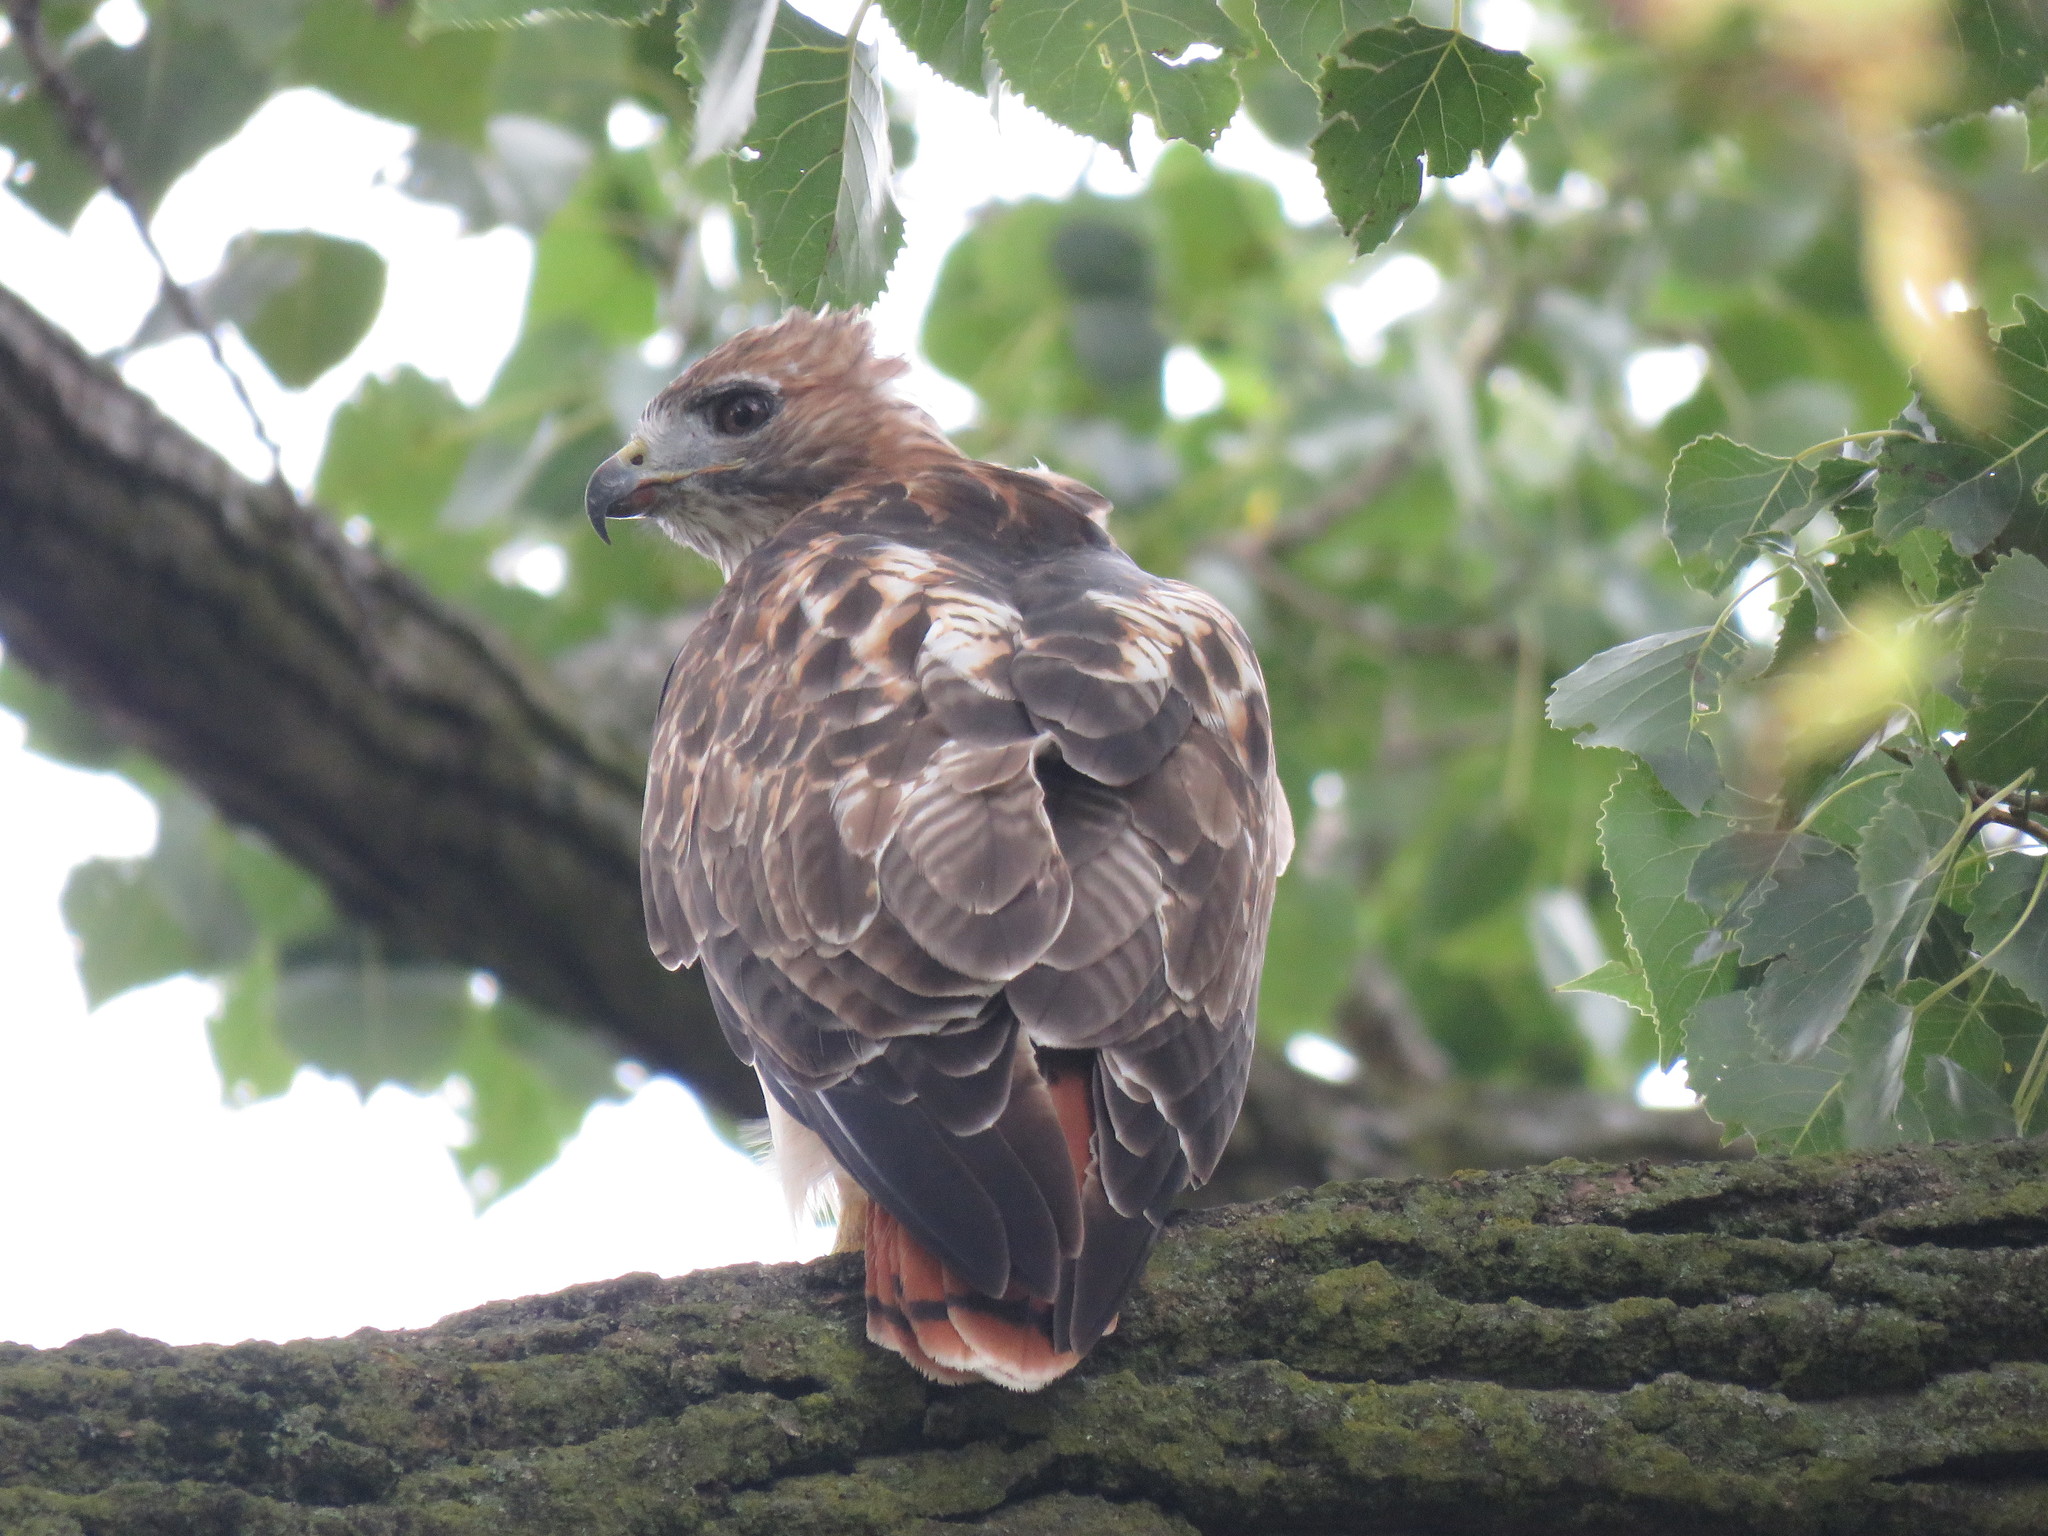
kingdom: Animalia
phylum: Chordata
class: Aves
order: Accipitriformes
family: Accipitridae
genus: Buteo
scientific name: Buteo jamaicensis
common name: Red-tailed hawk
